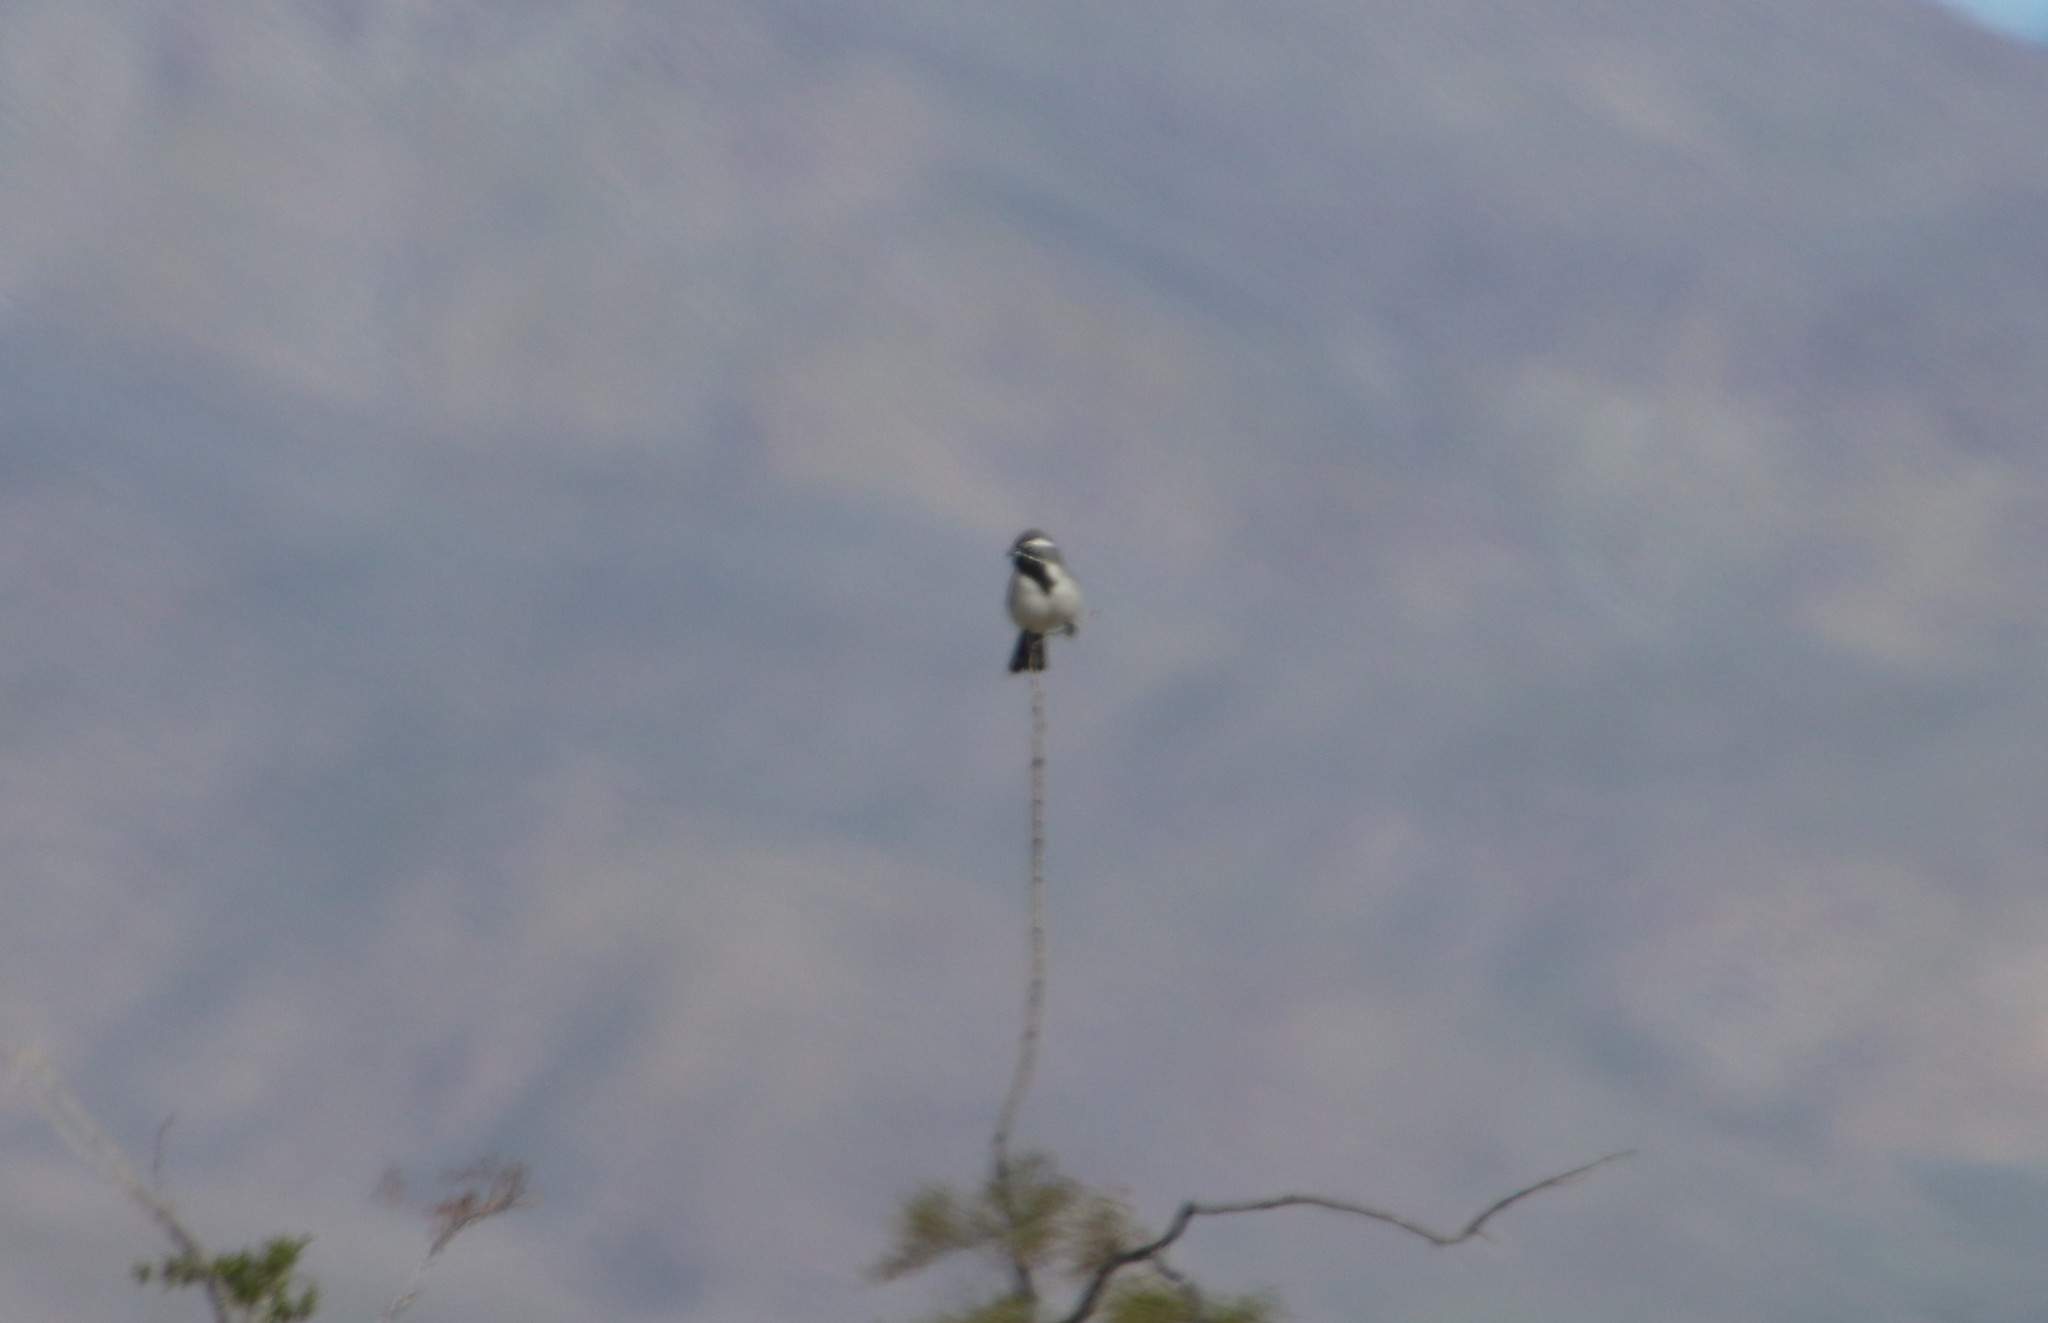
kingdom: Animalia
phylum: Chordata
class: Aves
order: Passeriformes
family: Passerellidae
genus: Amphispiza
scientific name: Amphispiza bilineata
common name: Black-throated sparrow
